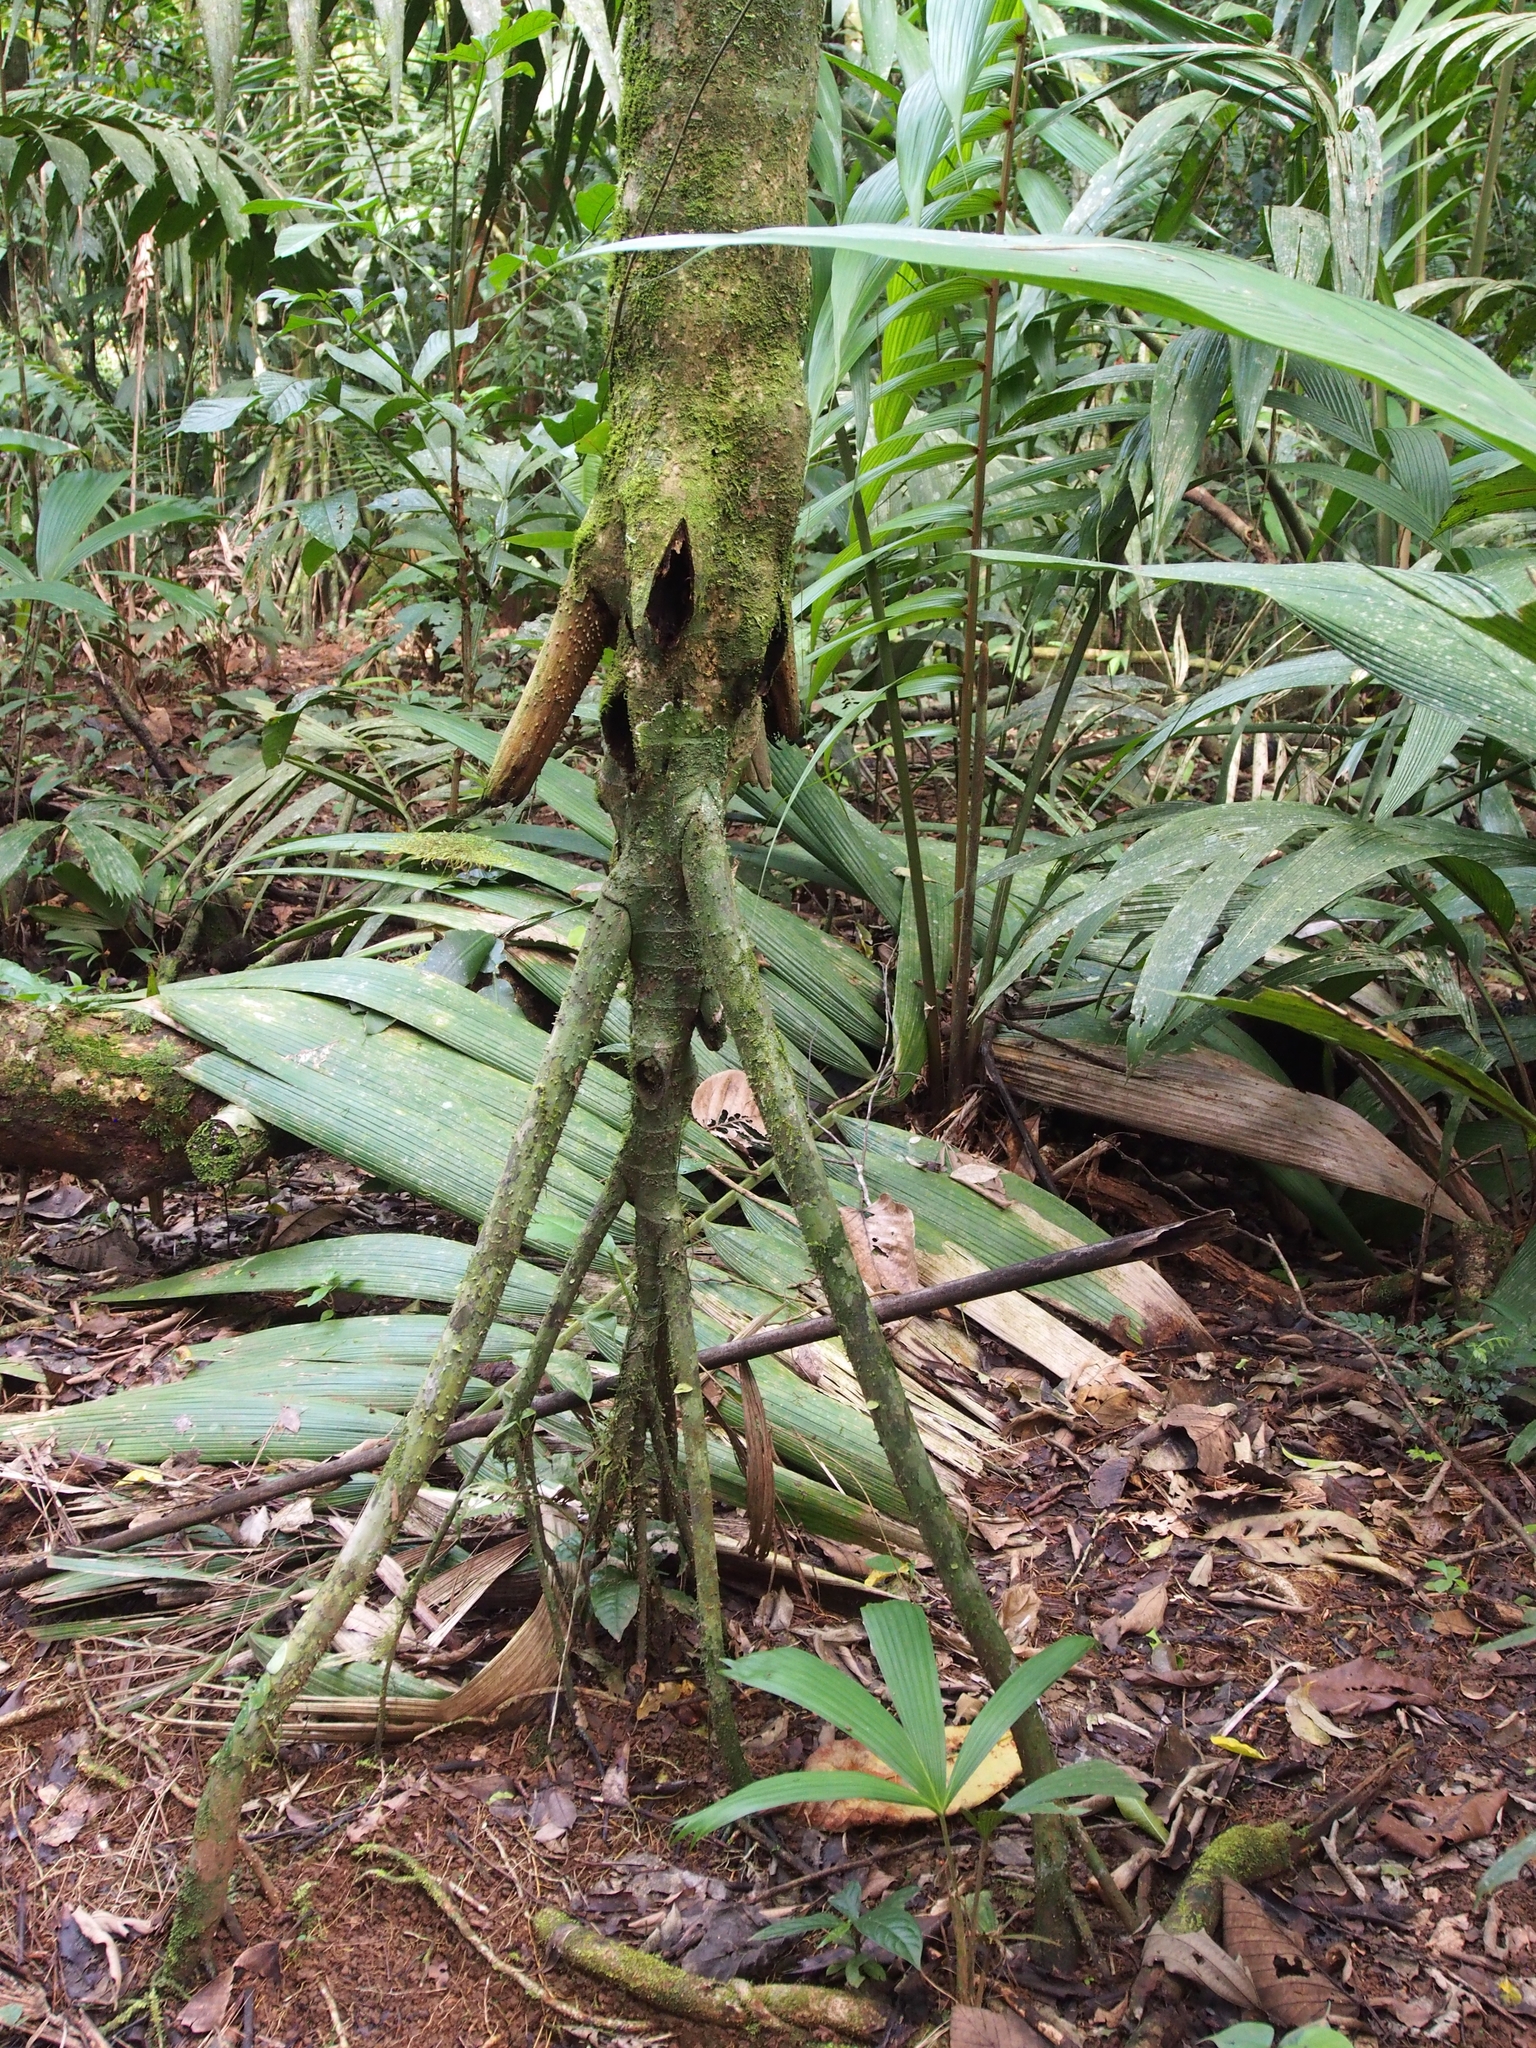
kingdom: Plantae
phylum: Tracheophyta
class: Liliopsida
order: Arecales
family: Arecaceae
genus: Socratea
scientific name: Socratea exorrhiza
